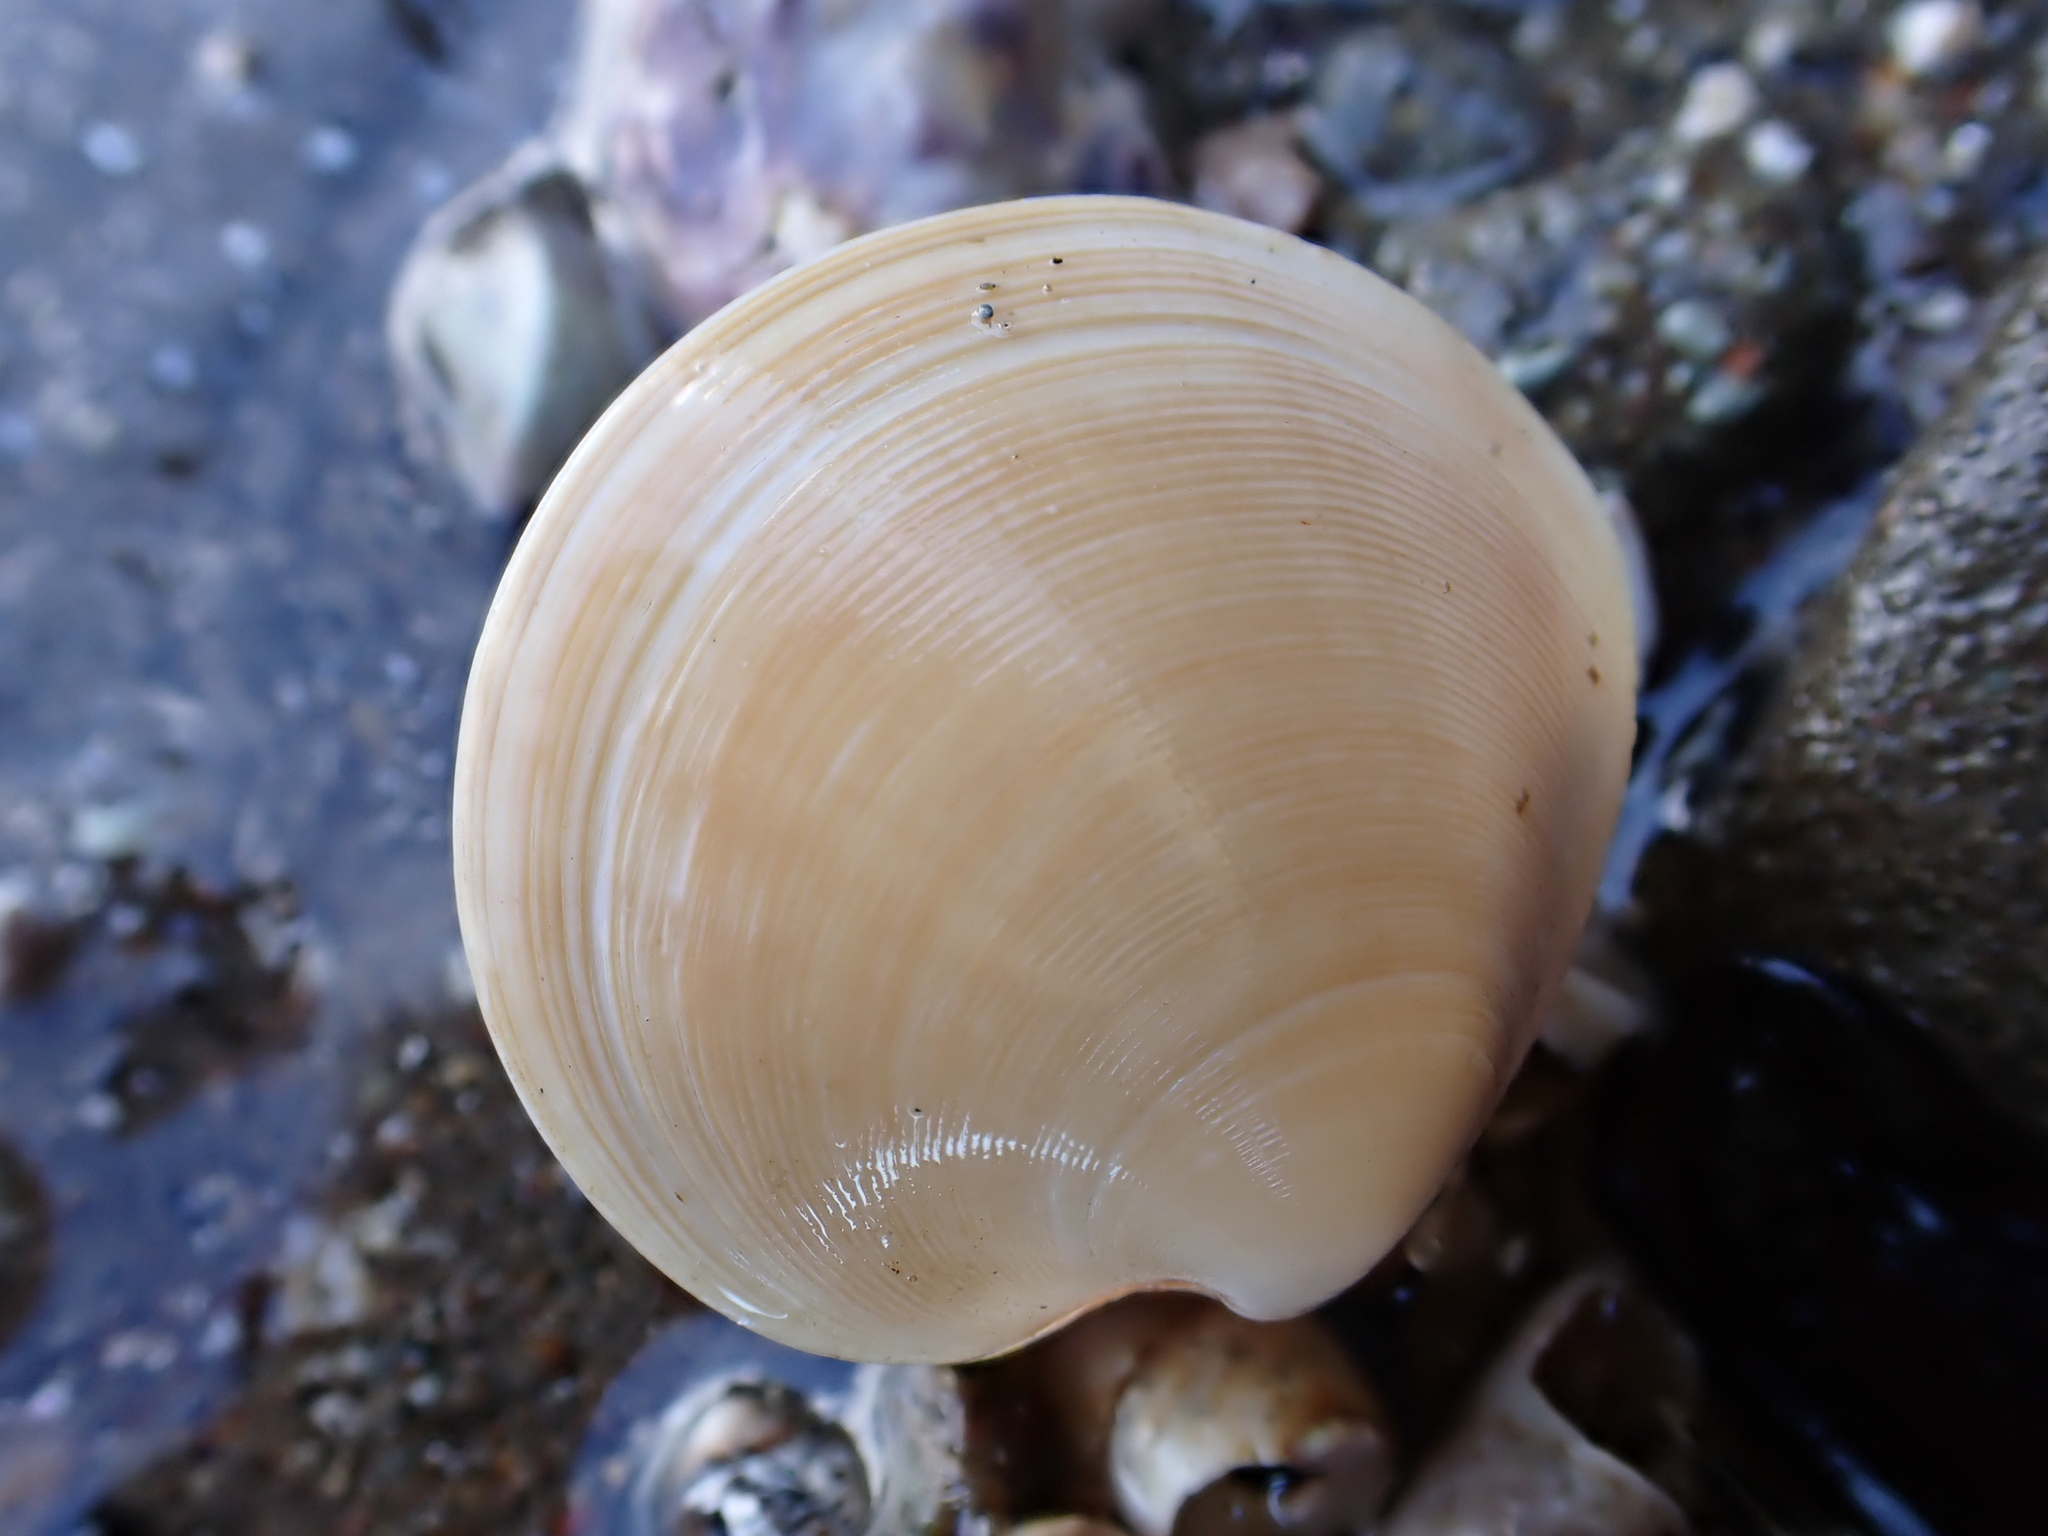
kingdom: Animalia
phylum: Mollusca
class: Bivalvia
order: Venerida
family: Veneridae
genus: Dosinia
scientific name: Dosinia subrosea
